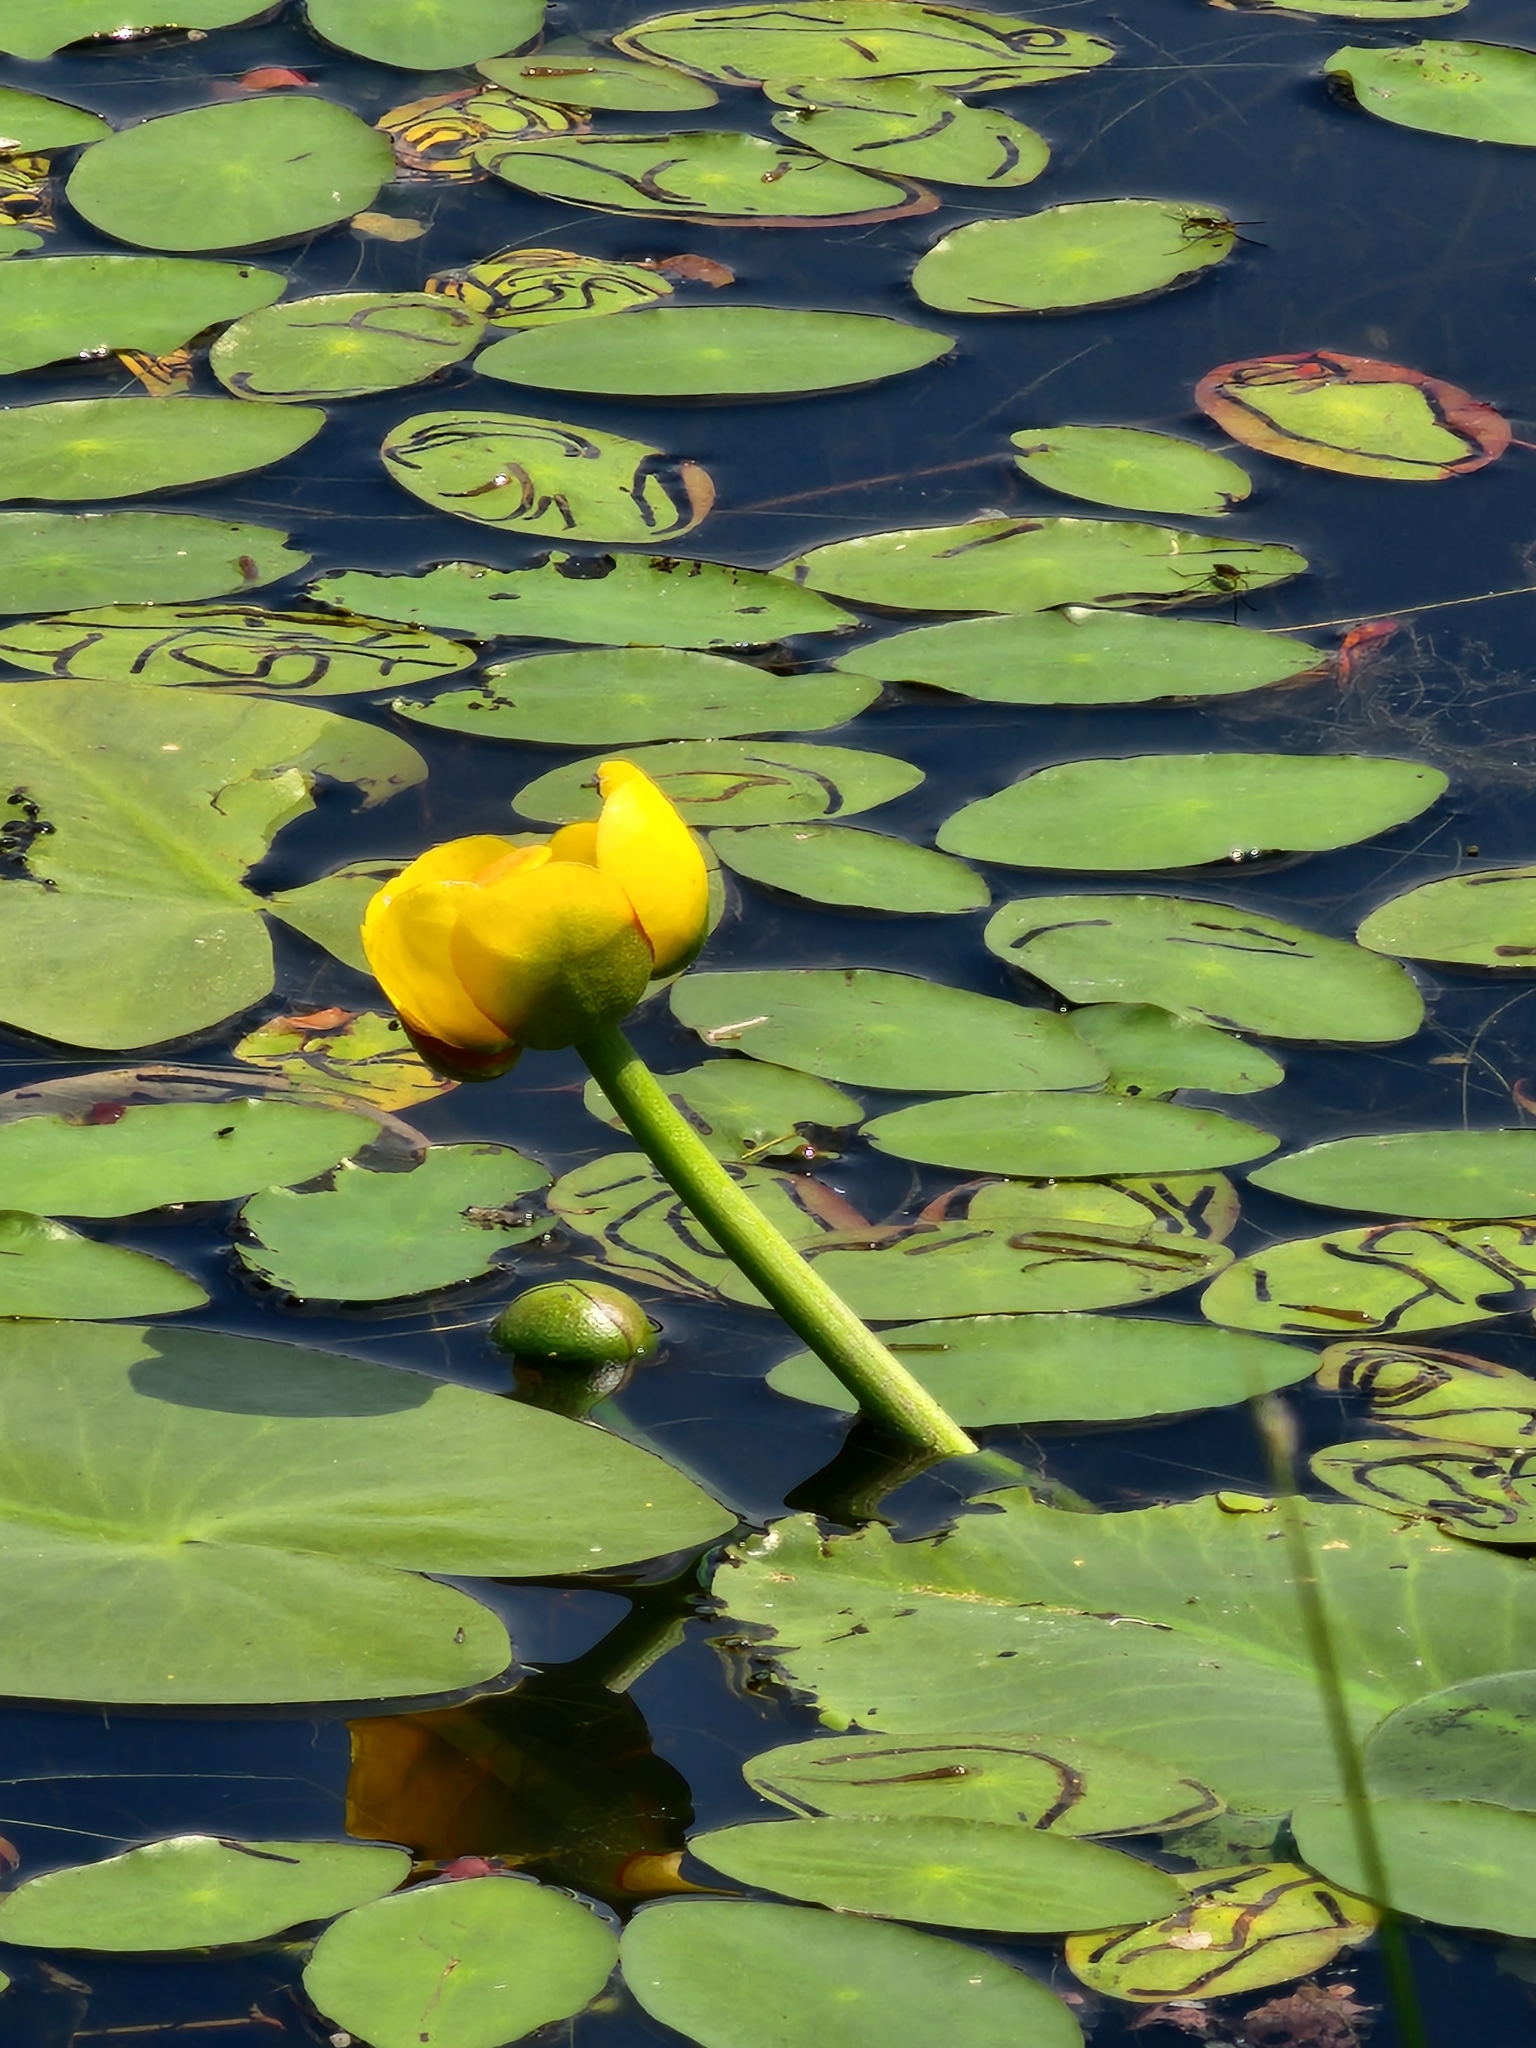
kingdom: Plantae
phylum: Tracheophyta
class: Magnoliopsida
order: Nymphaeales
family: Nymphaeaceae
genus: Nuphar
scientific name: Nuphar variegata
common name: Beaver-root
